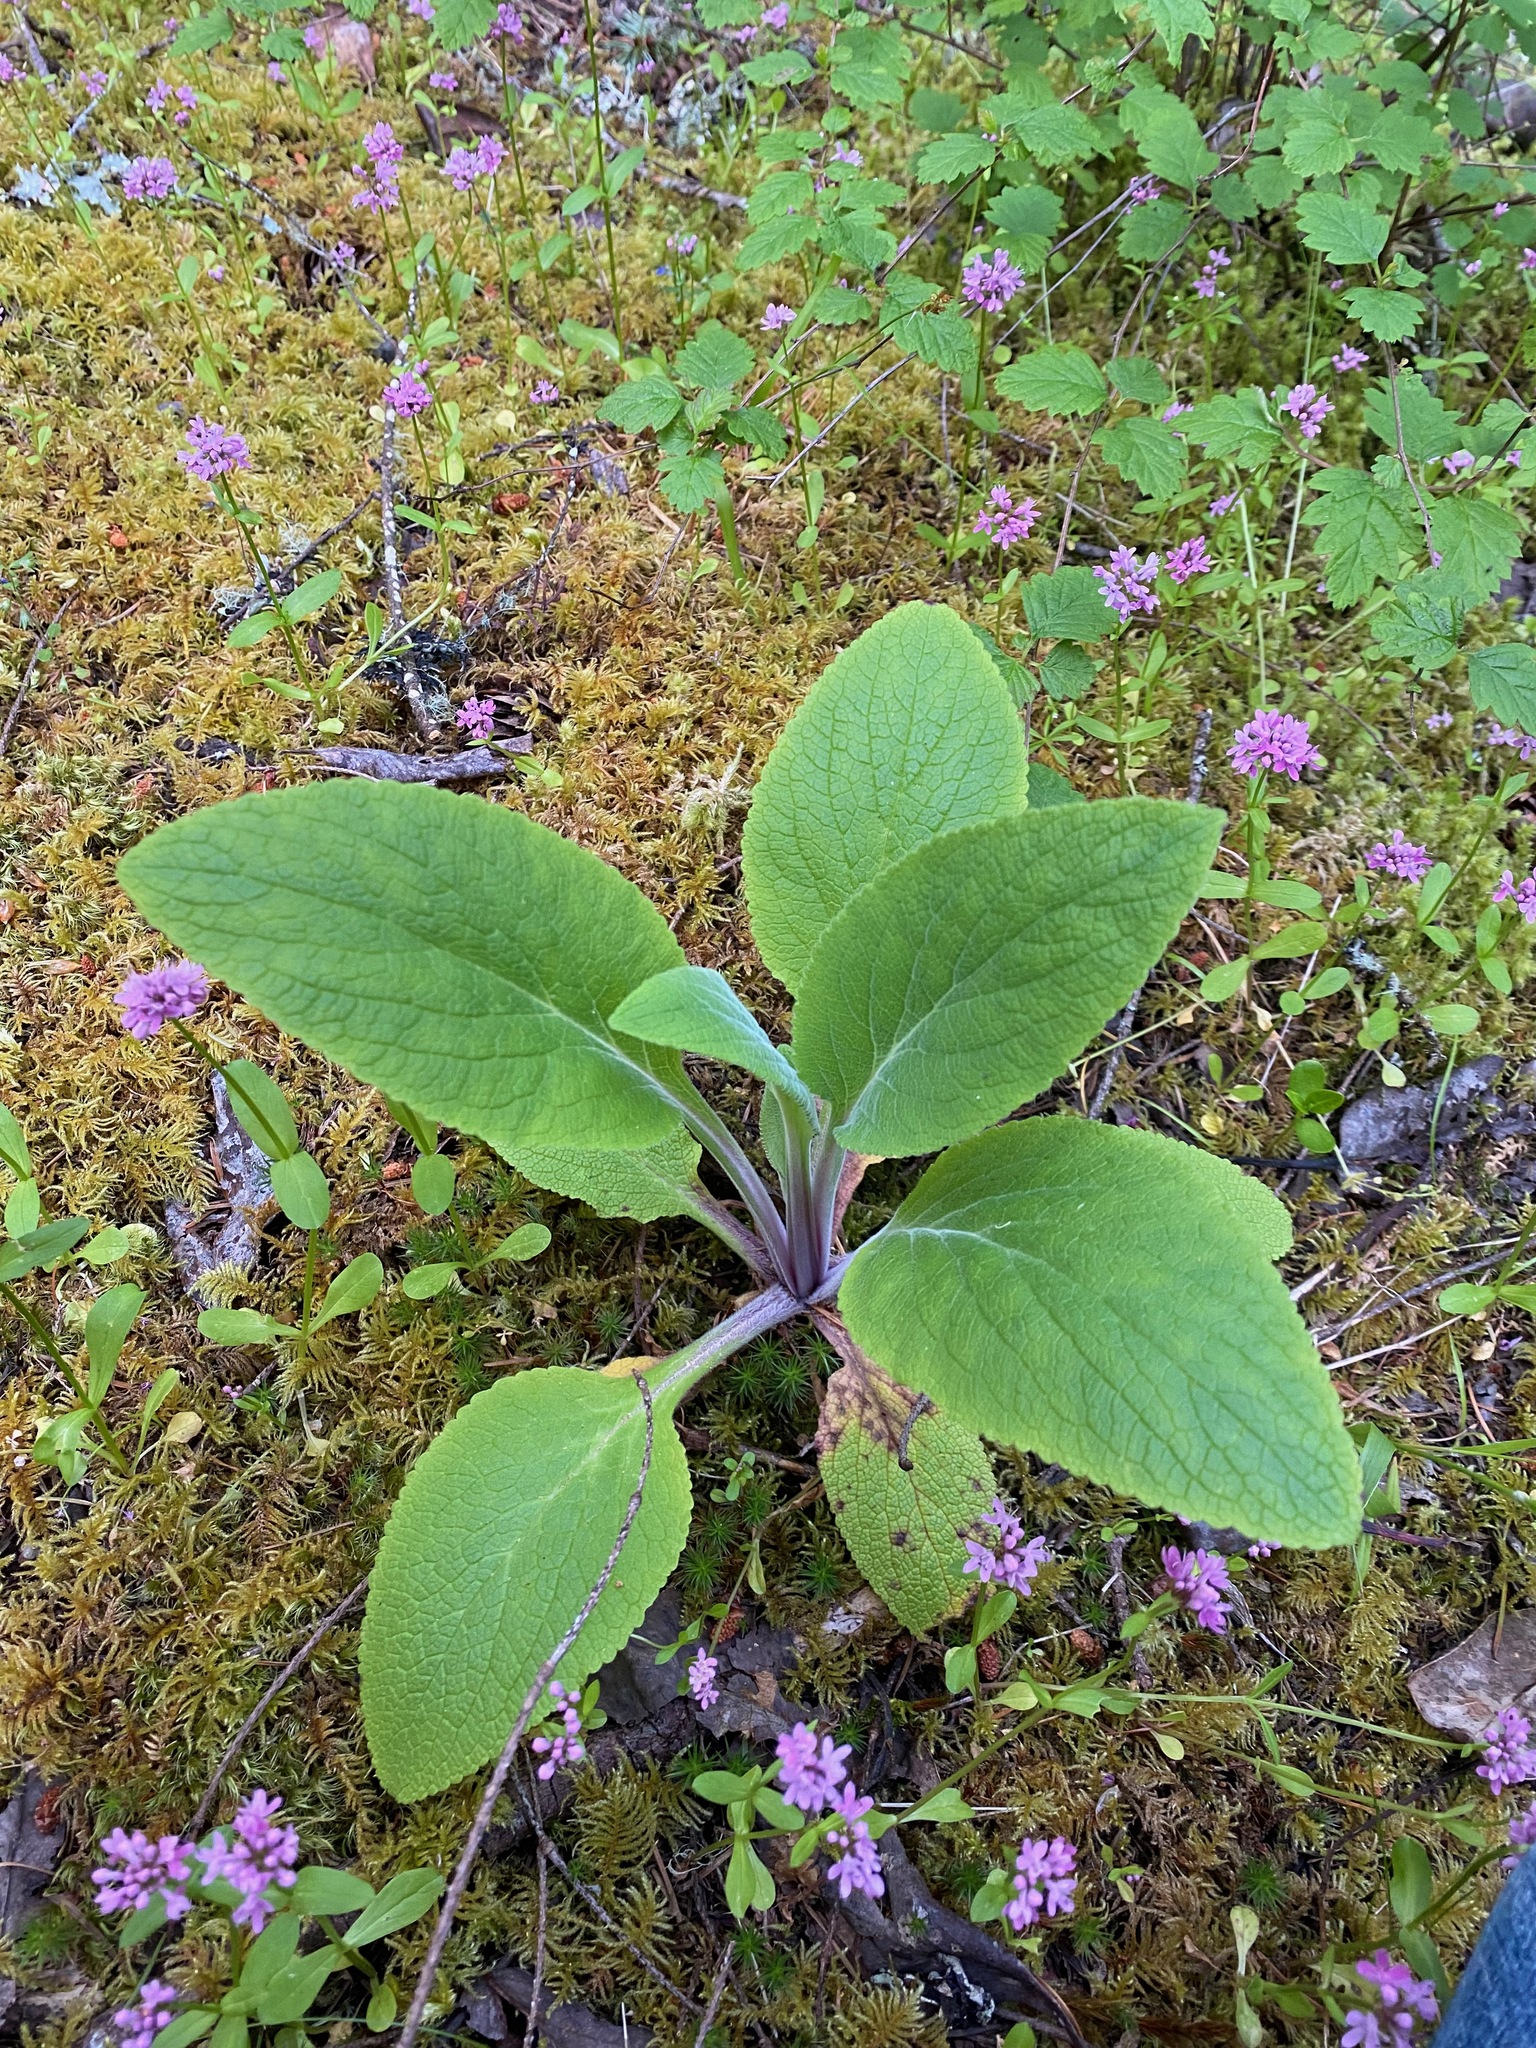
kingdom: Plantae
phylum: Tracheophyta
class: Magnoliopsida
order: Lamiales
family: Plantaginaceae
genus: Digitalis
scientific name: Digitalis purpurea
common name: Foxglove
